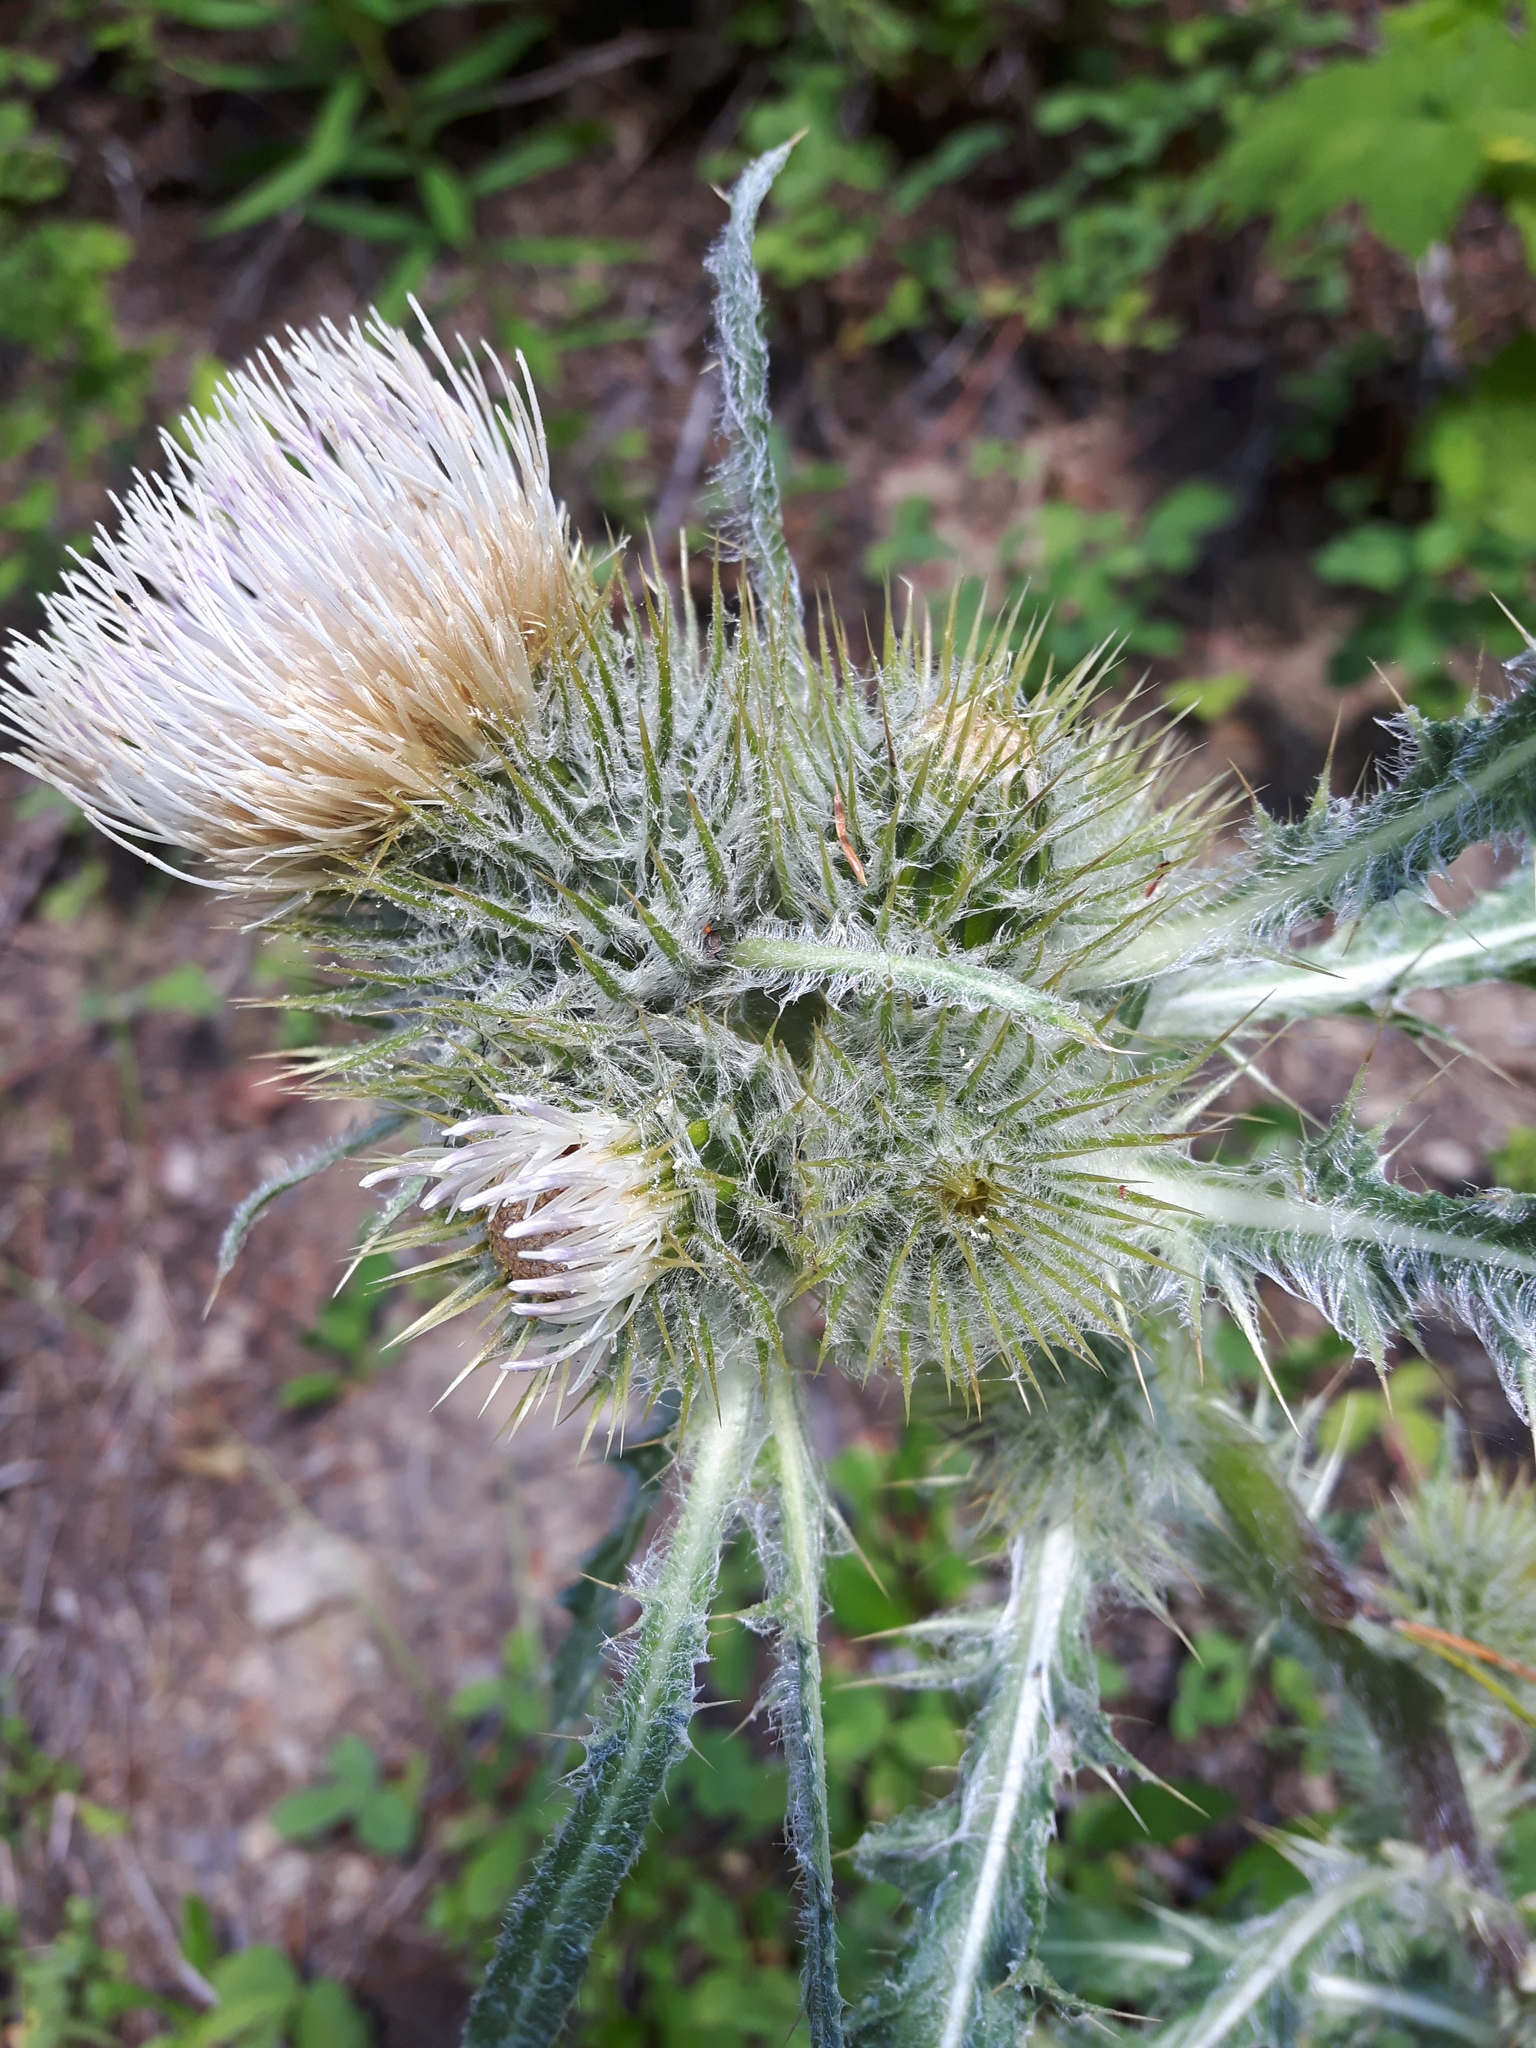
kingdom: Plantae
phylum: Tracheophyta
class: Magnoliopsida
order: Asterales
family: Asteraceae
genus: Cirsium
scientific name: Cirsium hookerianum
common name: Hooker's thistle
